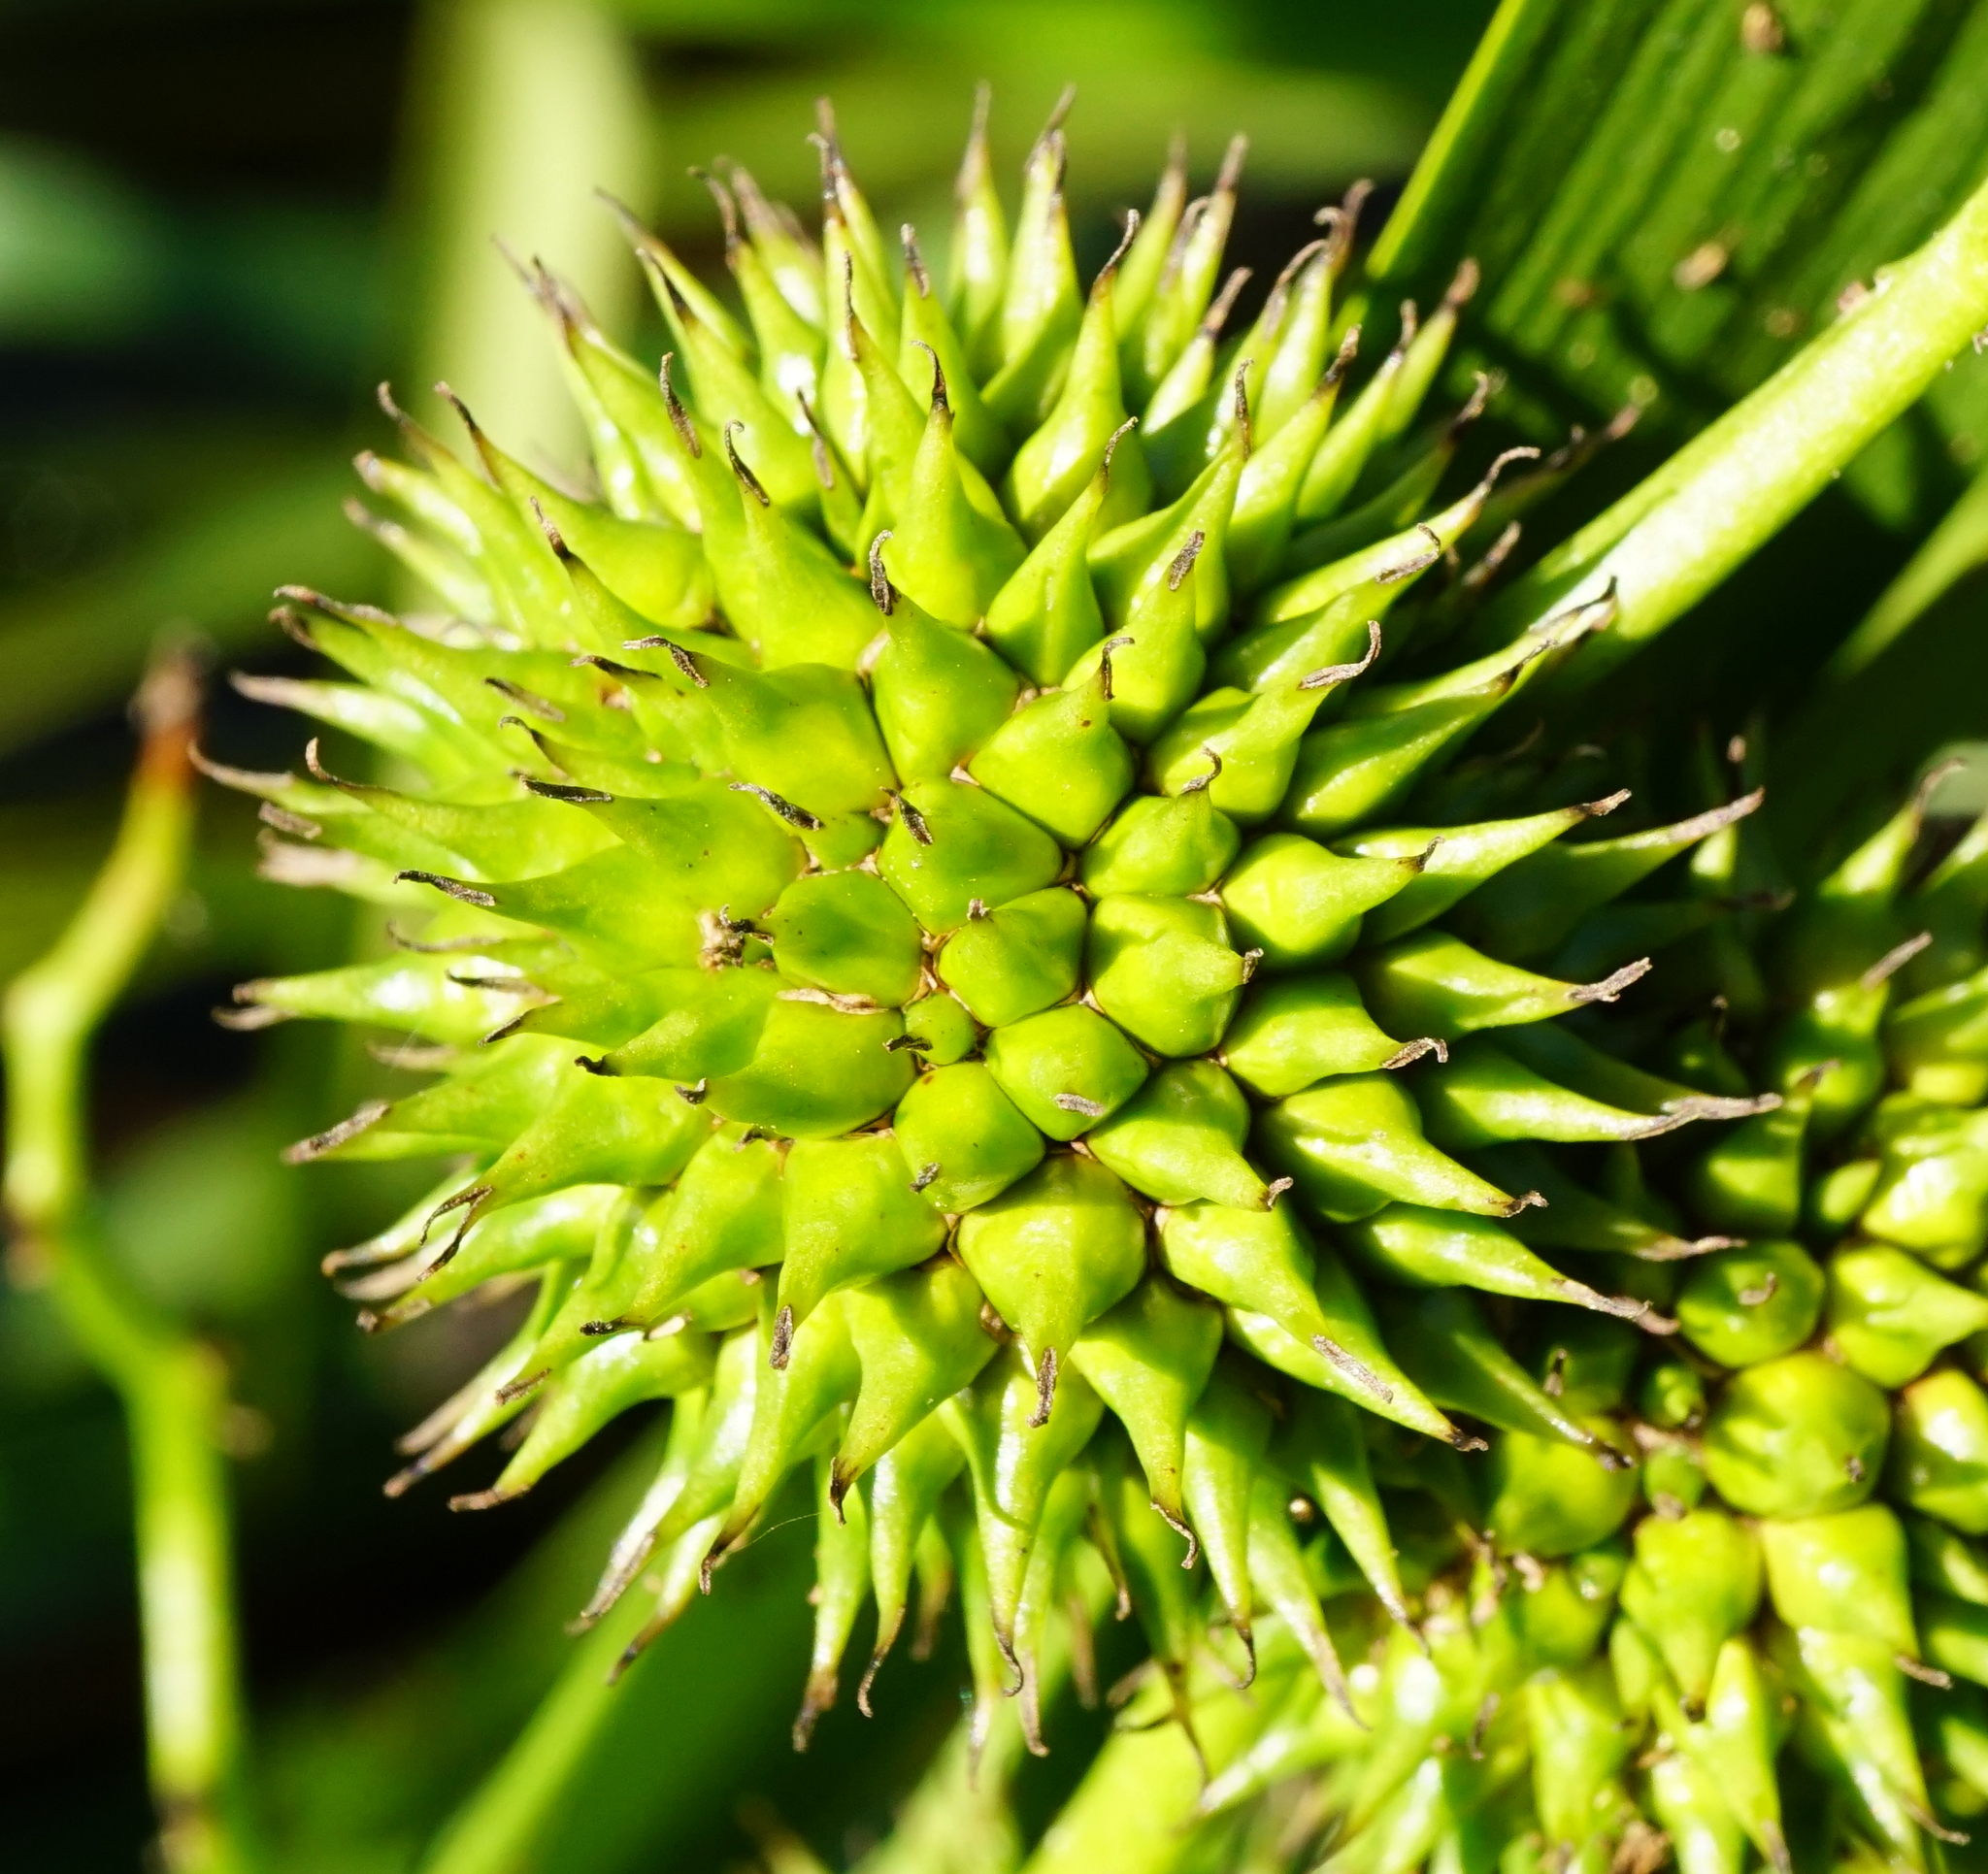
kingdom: Plantae
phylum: Tracheophyta
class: Liliopsida
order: Poales
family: Typhaceae
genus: Sparganium
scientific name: Sparganium erectum
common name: Branched bur-reed
